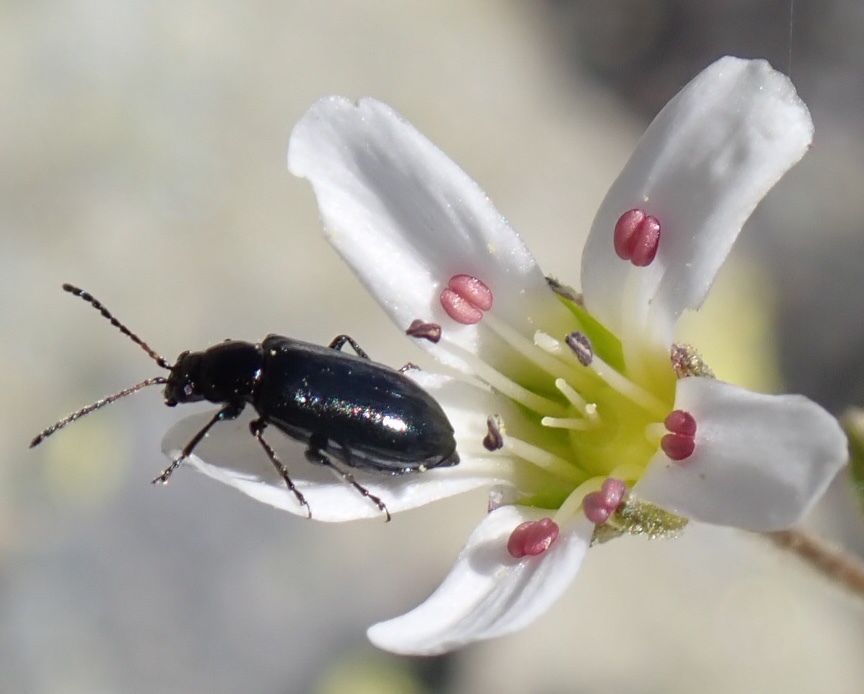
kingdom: Animalia
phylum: Arthropoda
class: Insecta
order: Coleoptera
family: Chrysomelidae
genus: Pseudoluperus
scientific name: Pseudoluperus longulus
